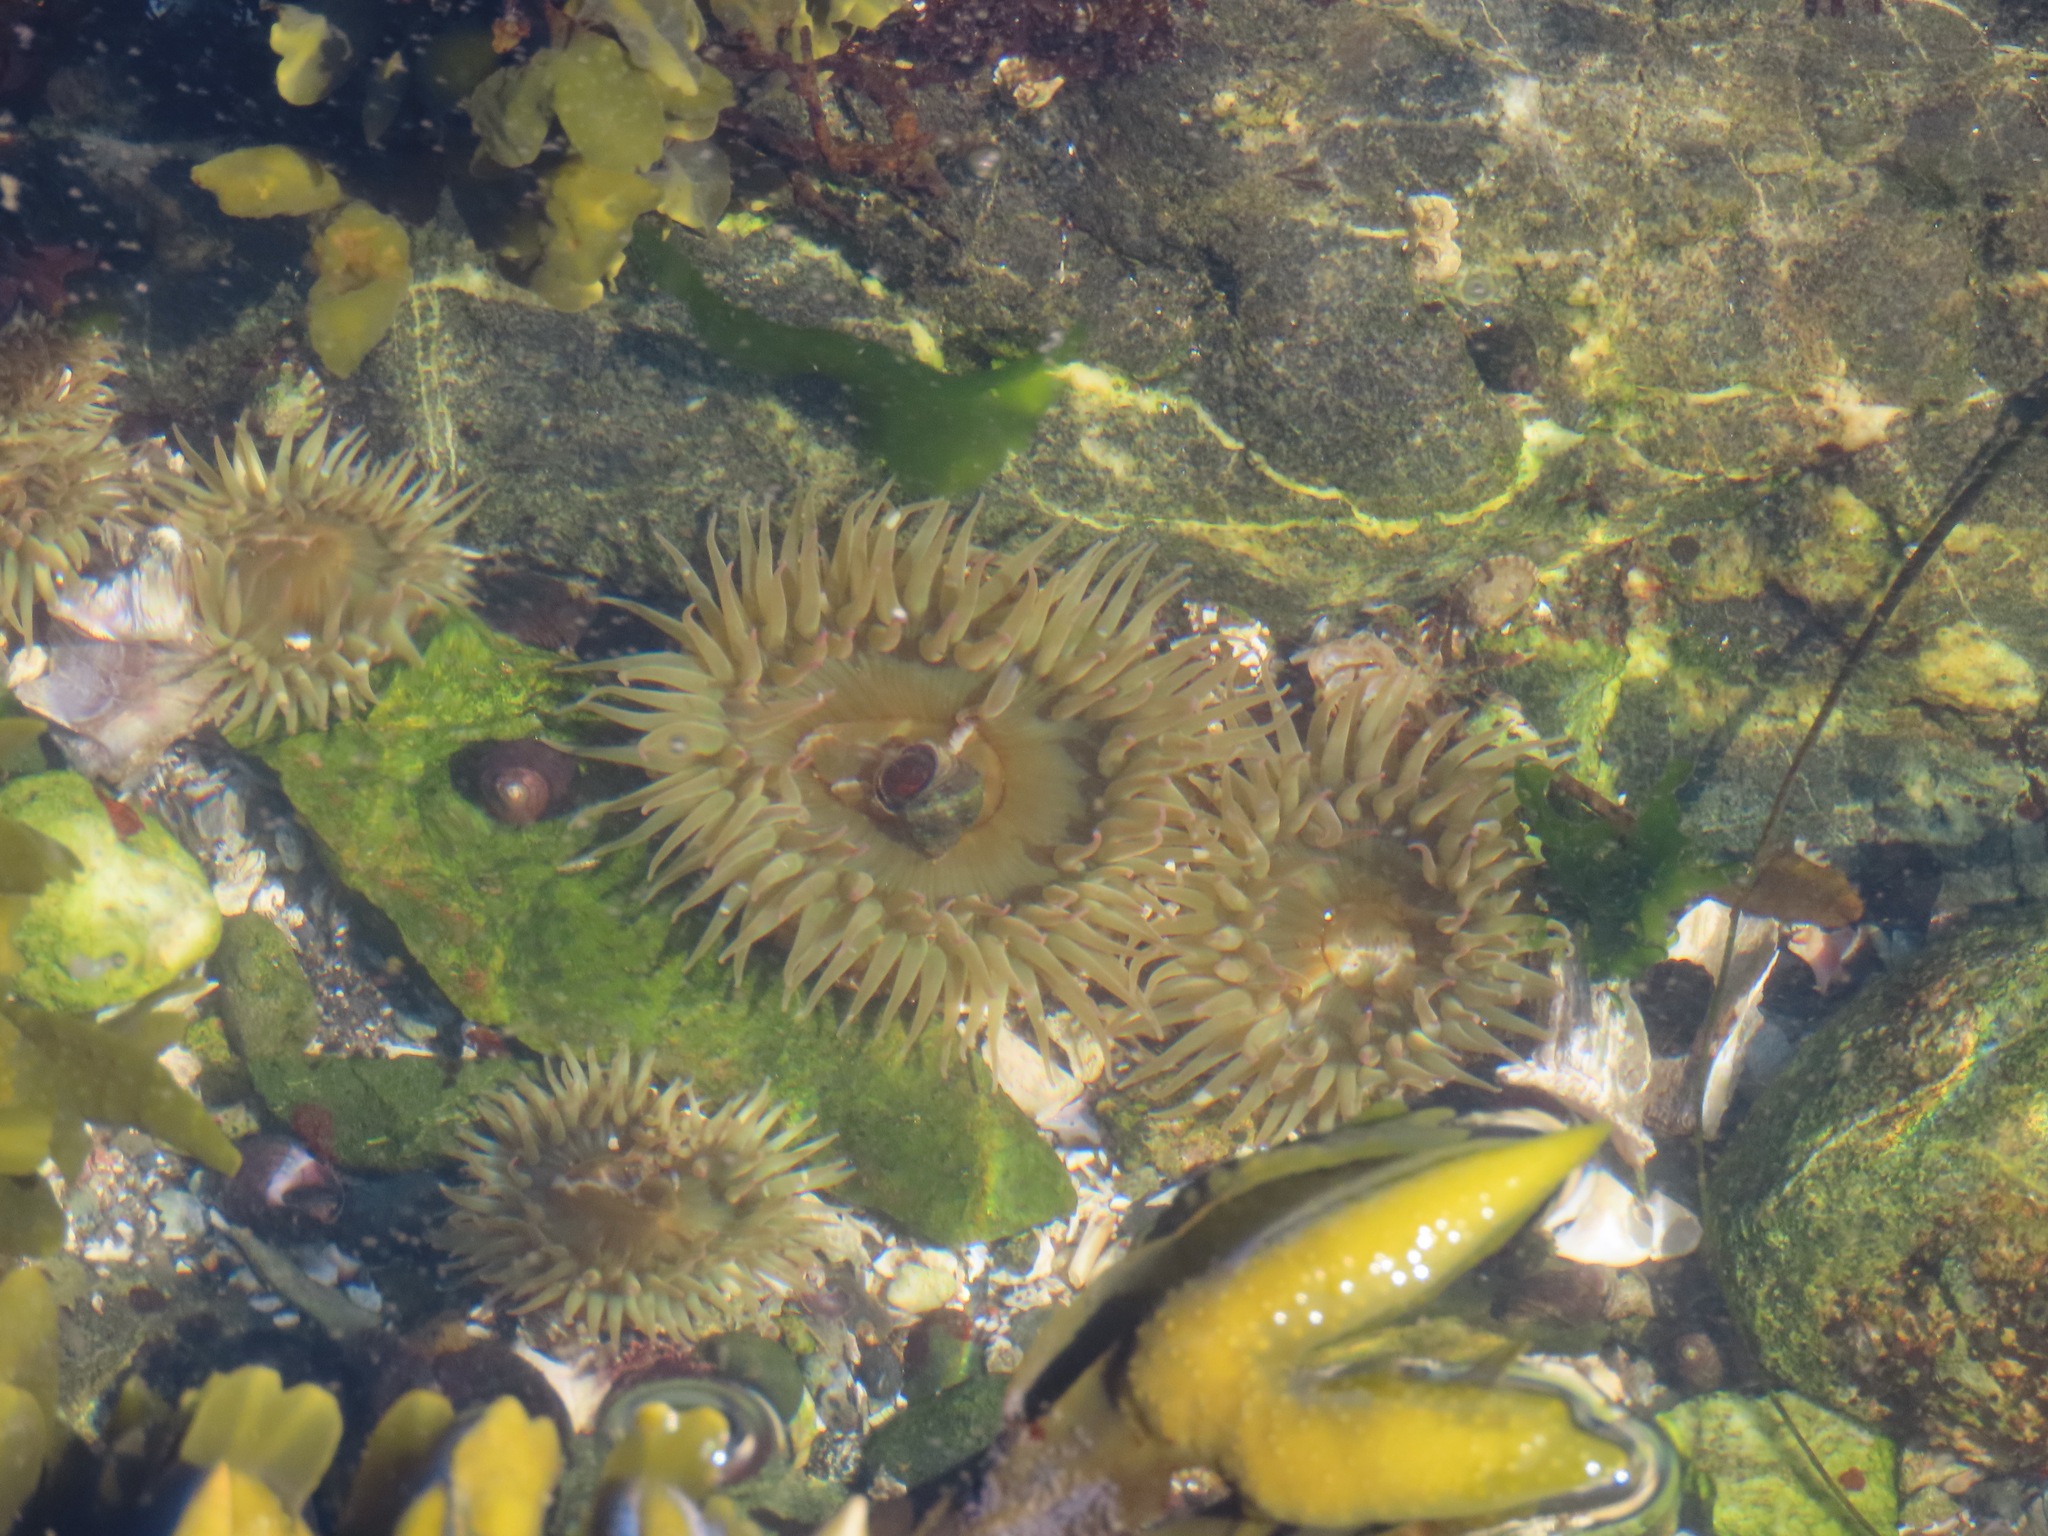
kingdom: Animalia
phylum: Cnidaria
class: Anthozoa
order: Actiniaria
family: Actiniidae
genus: Anthopleura
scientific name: Anthopleura elegantissima
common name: Clonal anemone
